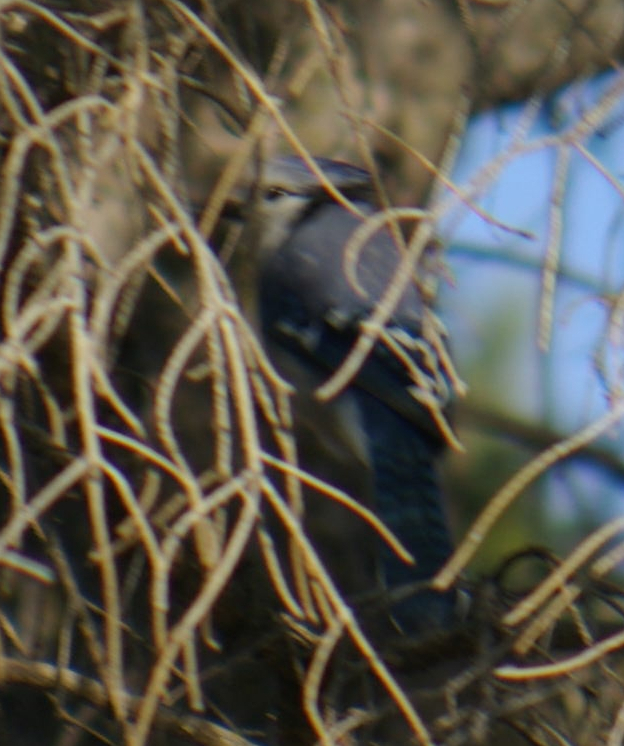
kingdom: Animalia
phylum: Chordata
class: Aves
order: Passeriformes
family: Corvidae
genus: Cyanocitta
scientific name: Cyanocitta cristata
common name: Blue jay
